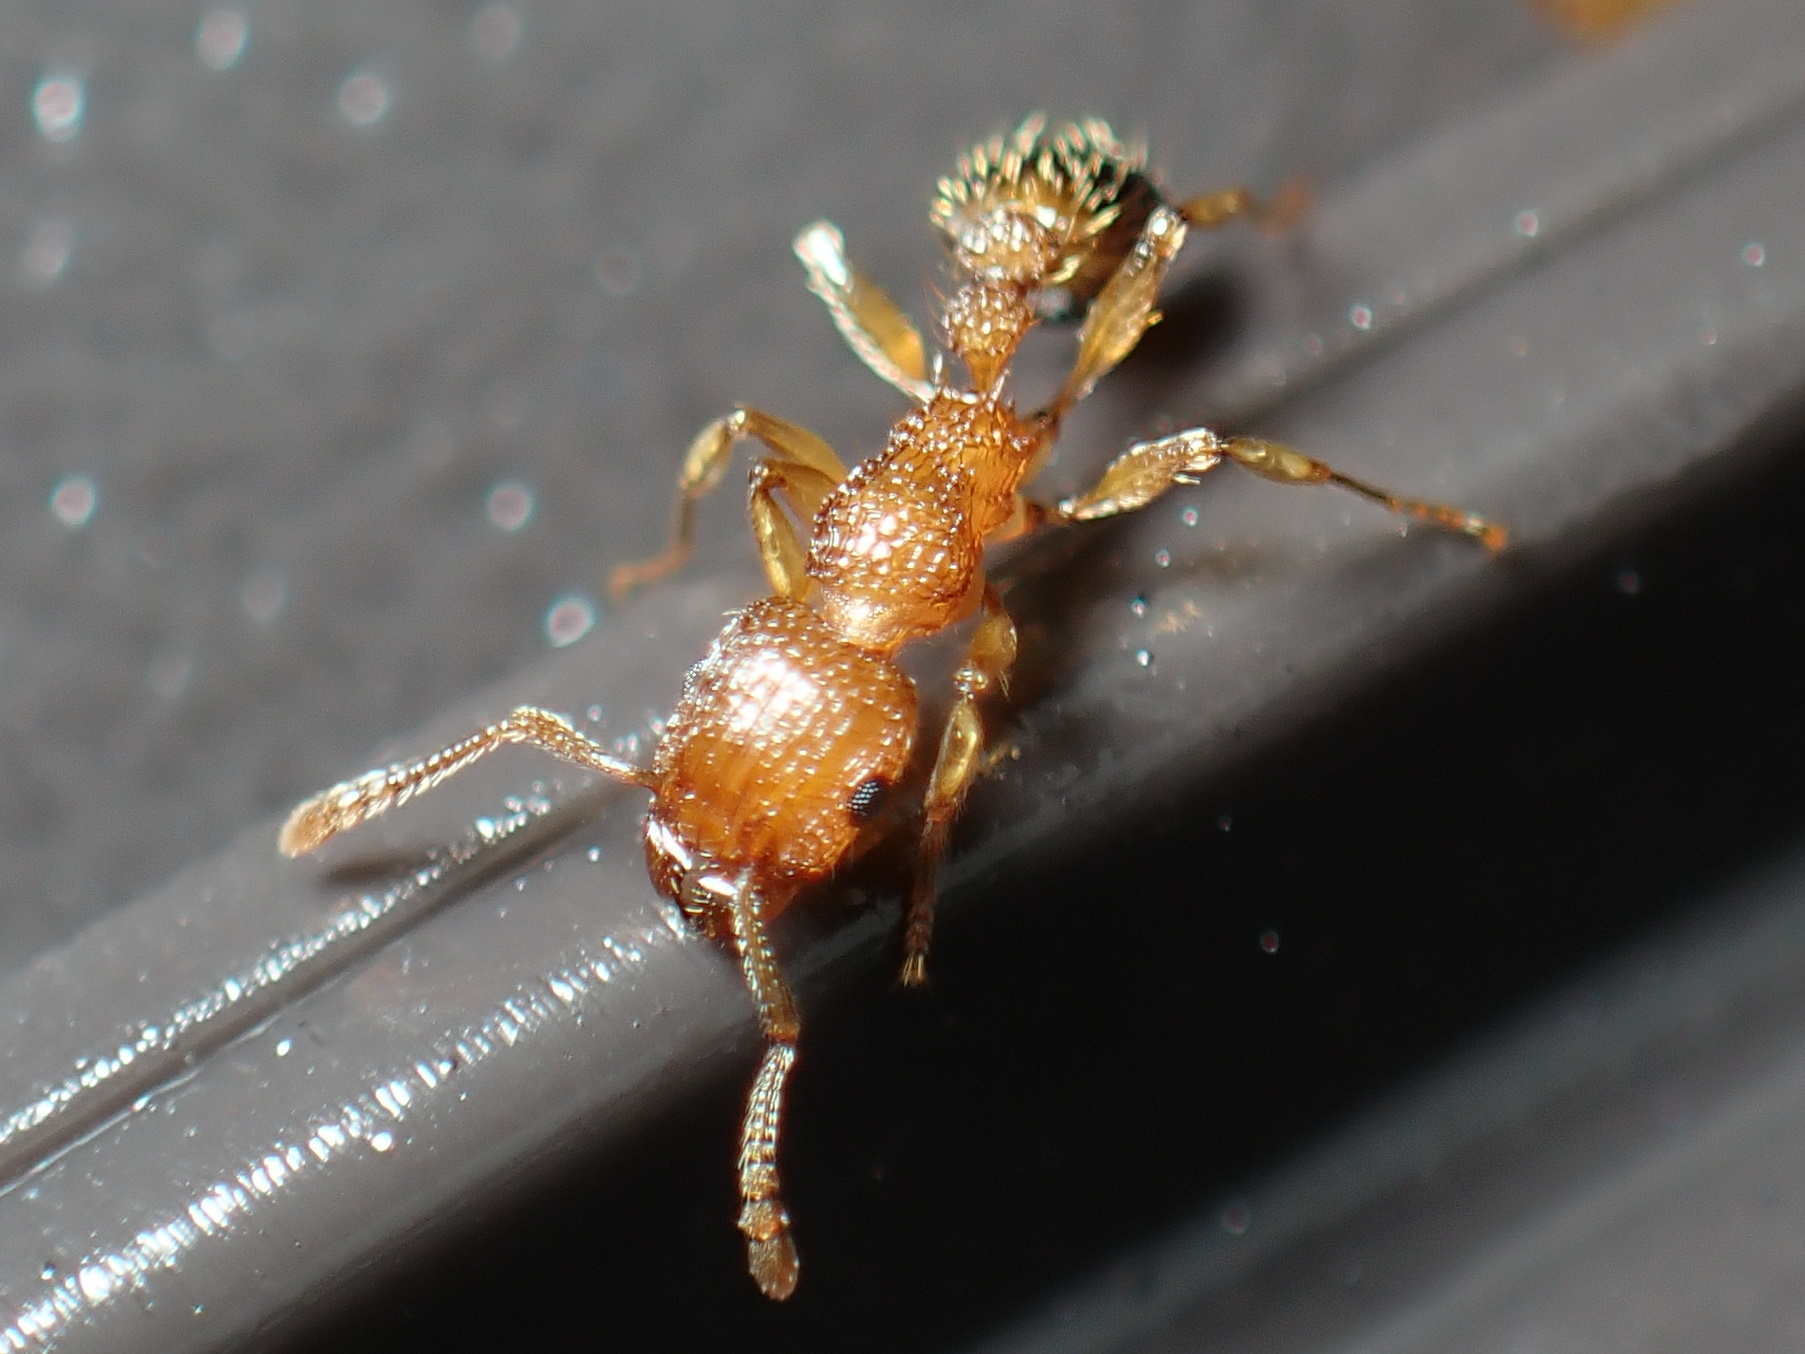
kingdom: Animalia
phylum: Arthropoda
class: Insecta
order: Hymenoptera
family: Formicidae
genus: Tetramorium
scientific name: Tetramorium bicarinatum
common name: Guinea ant
